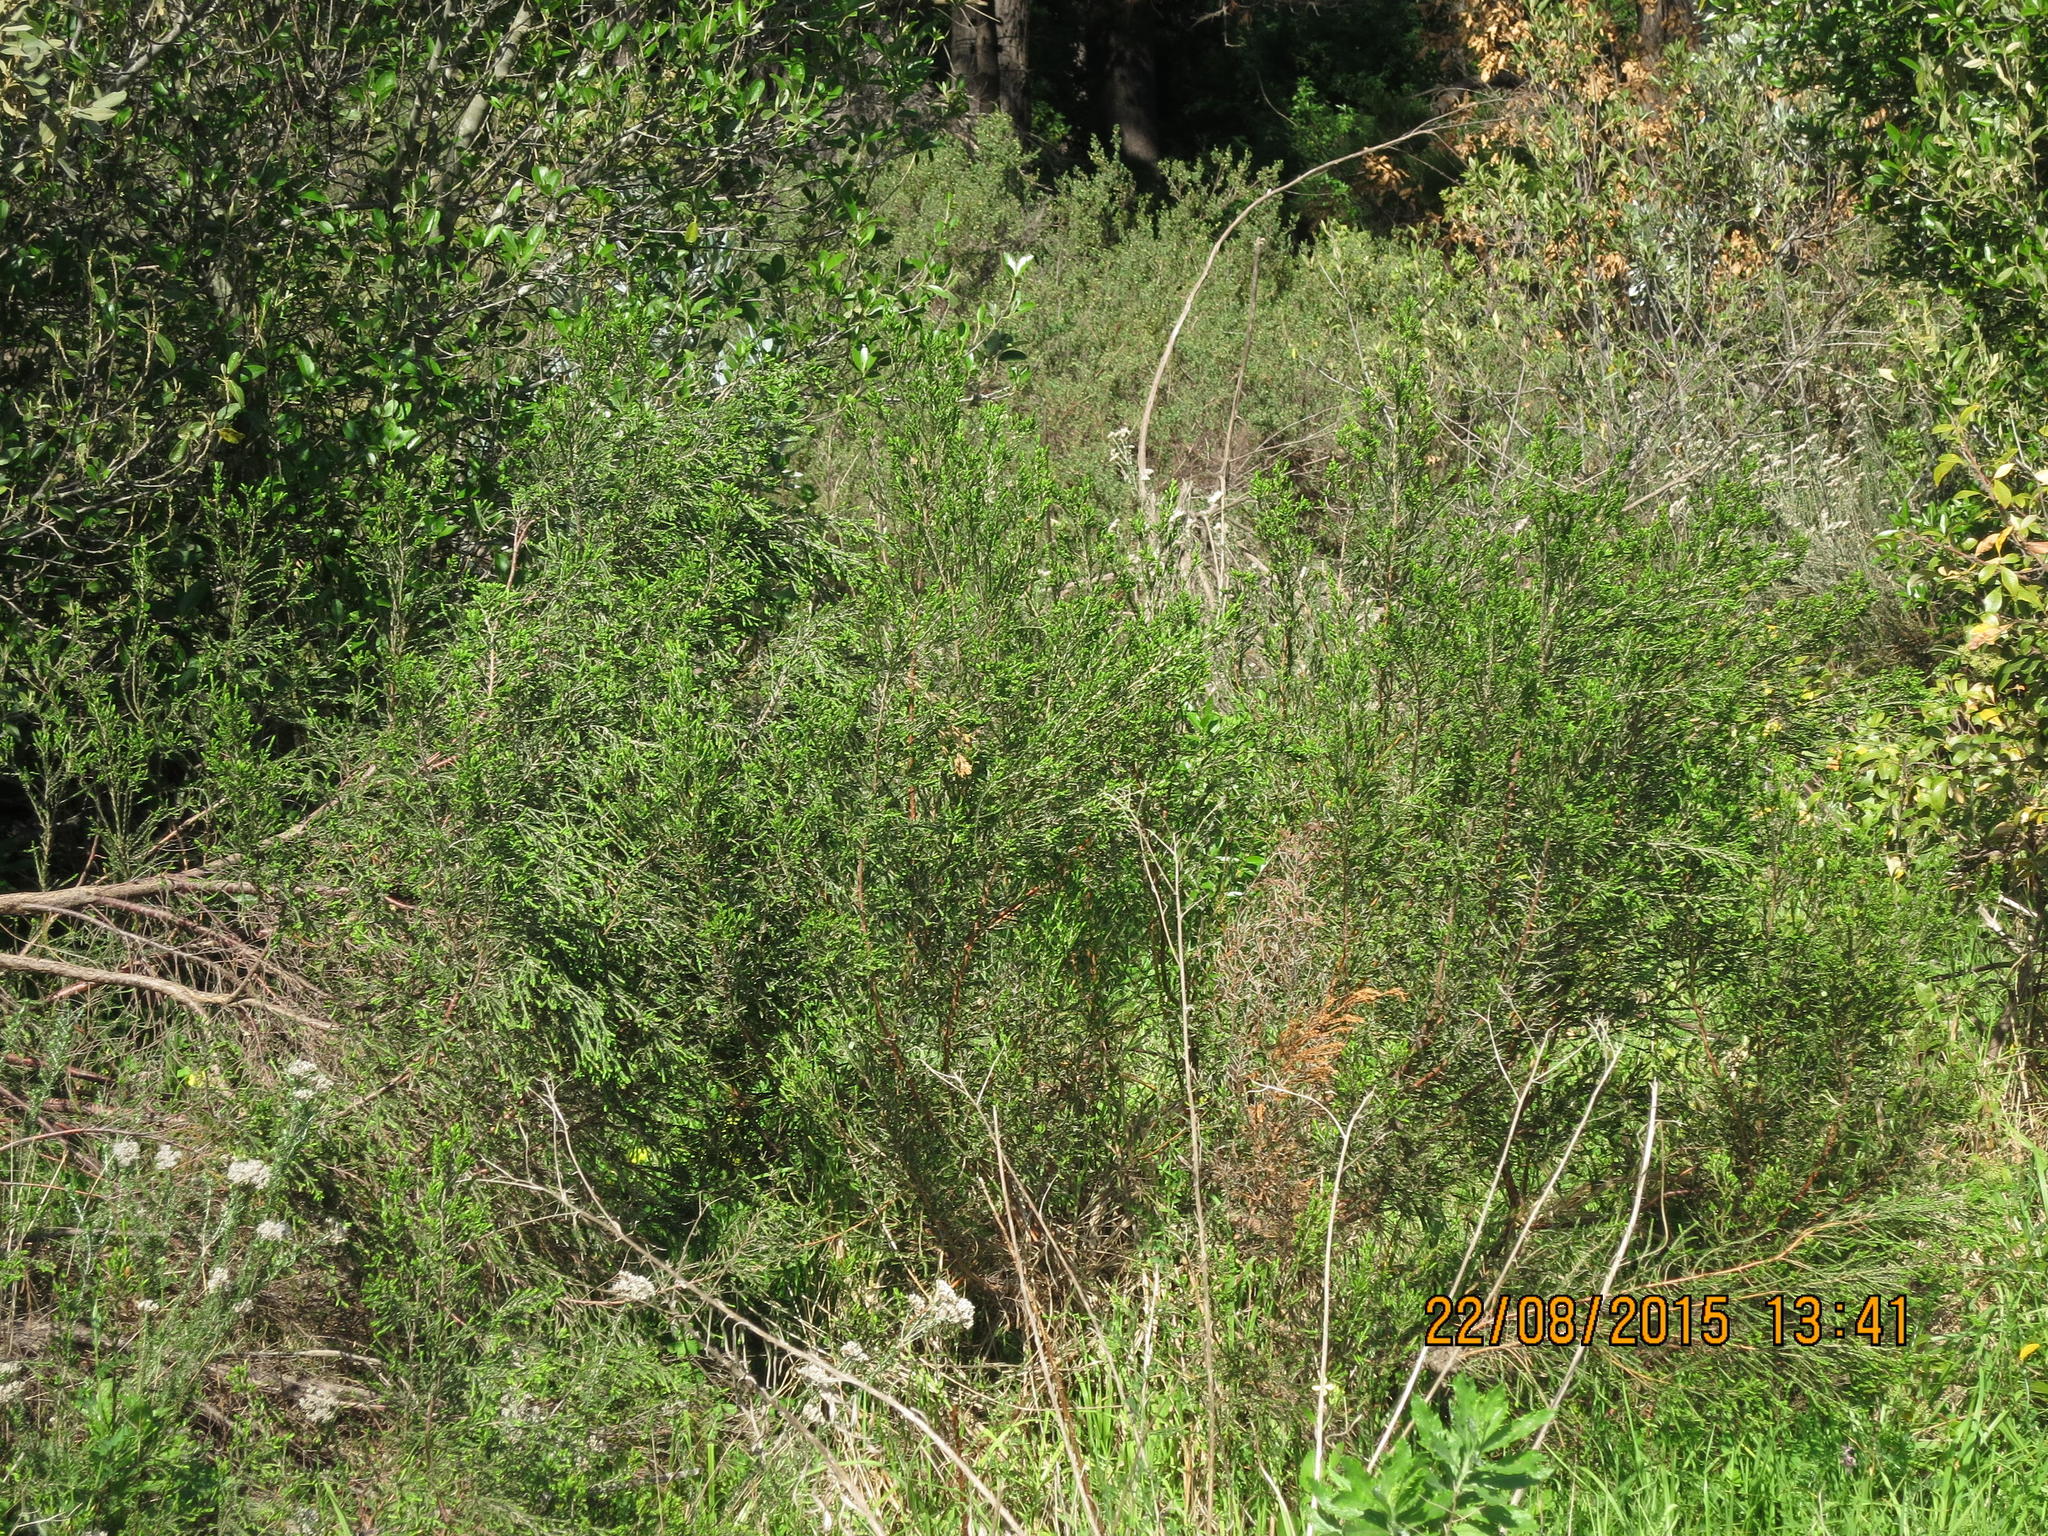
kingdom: Plantae
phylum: Tracheophyta
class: Magnoliopsida
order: Malvales
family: Thymelaeaceae
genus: Passerina
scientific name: Passerina corymbosa
